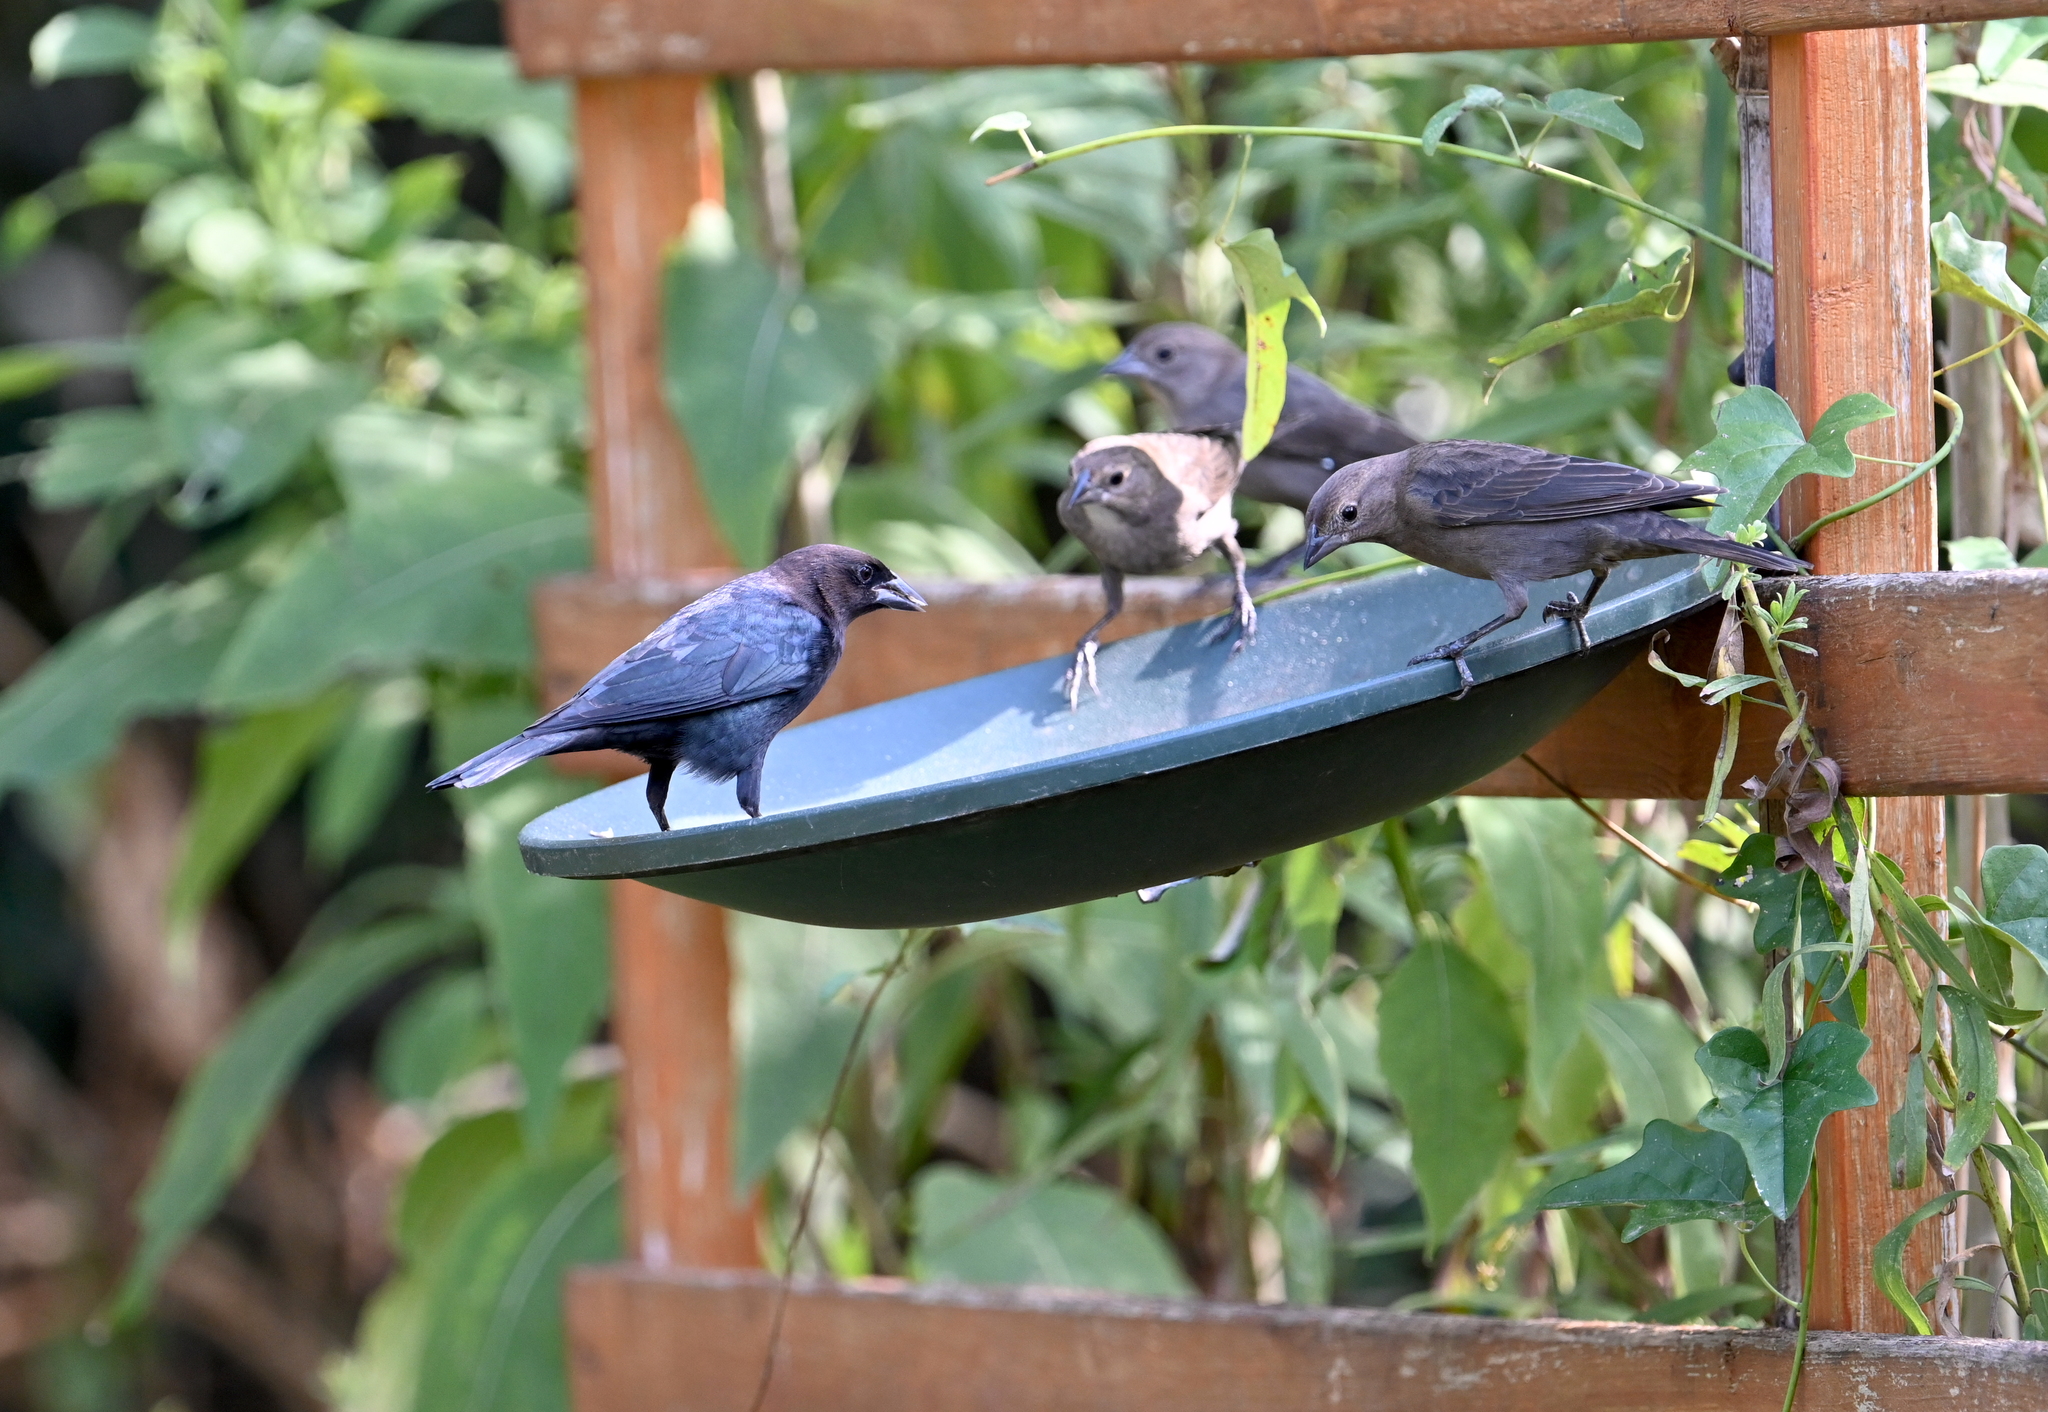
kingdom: Animalia
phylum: Chordata
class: Aves
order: Passeriformes
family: Icteridae
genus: Molothrus
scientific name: Molothrus ater
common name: Brown-headed cowbird
